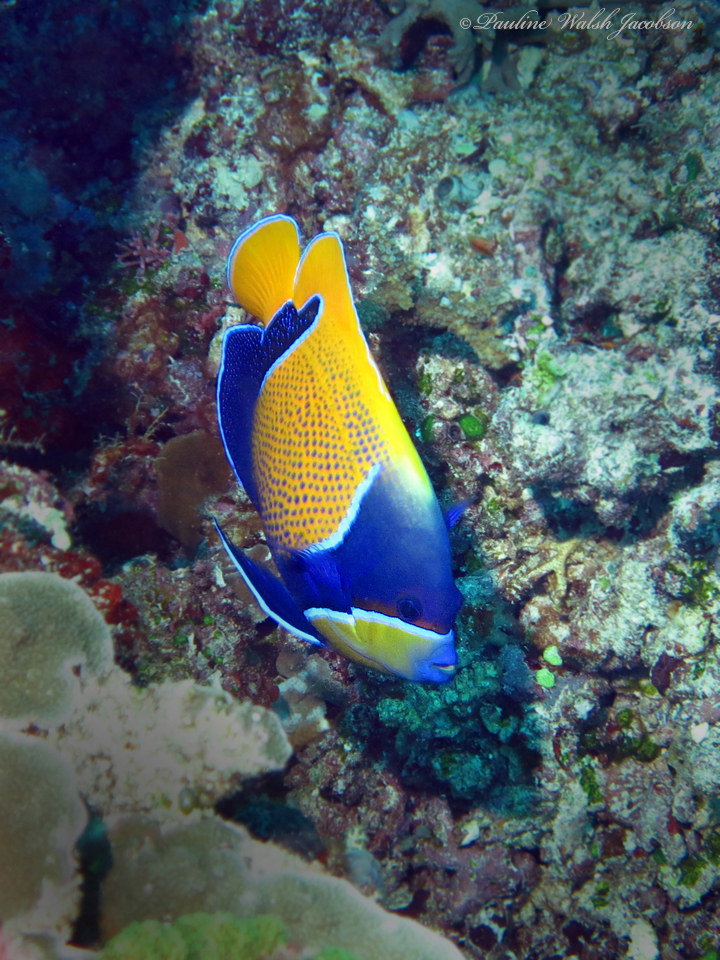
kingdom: Animalia
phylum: Chordata
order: Perciformes
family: Pomacanthidae
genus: Pomacanthus
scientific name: Pomacanthus navarchus
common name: Blue-girdled angelfish
